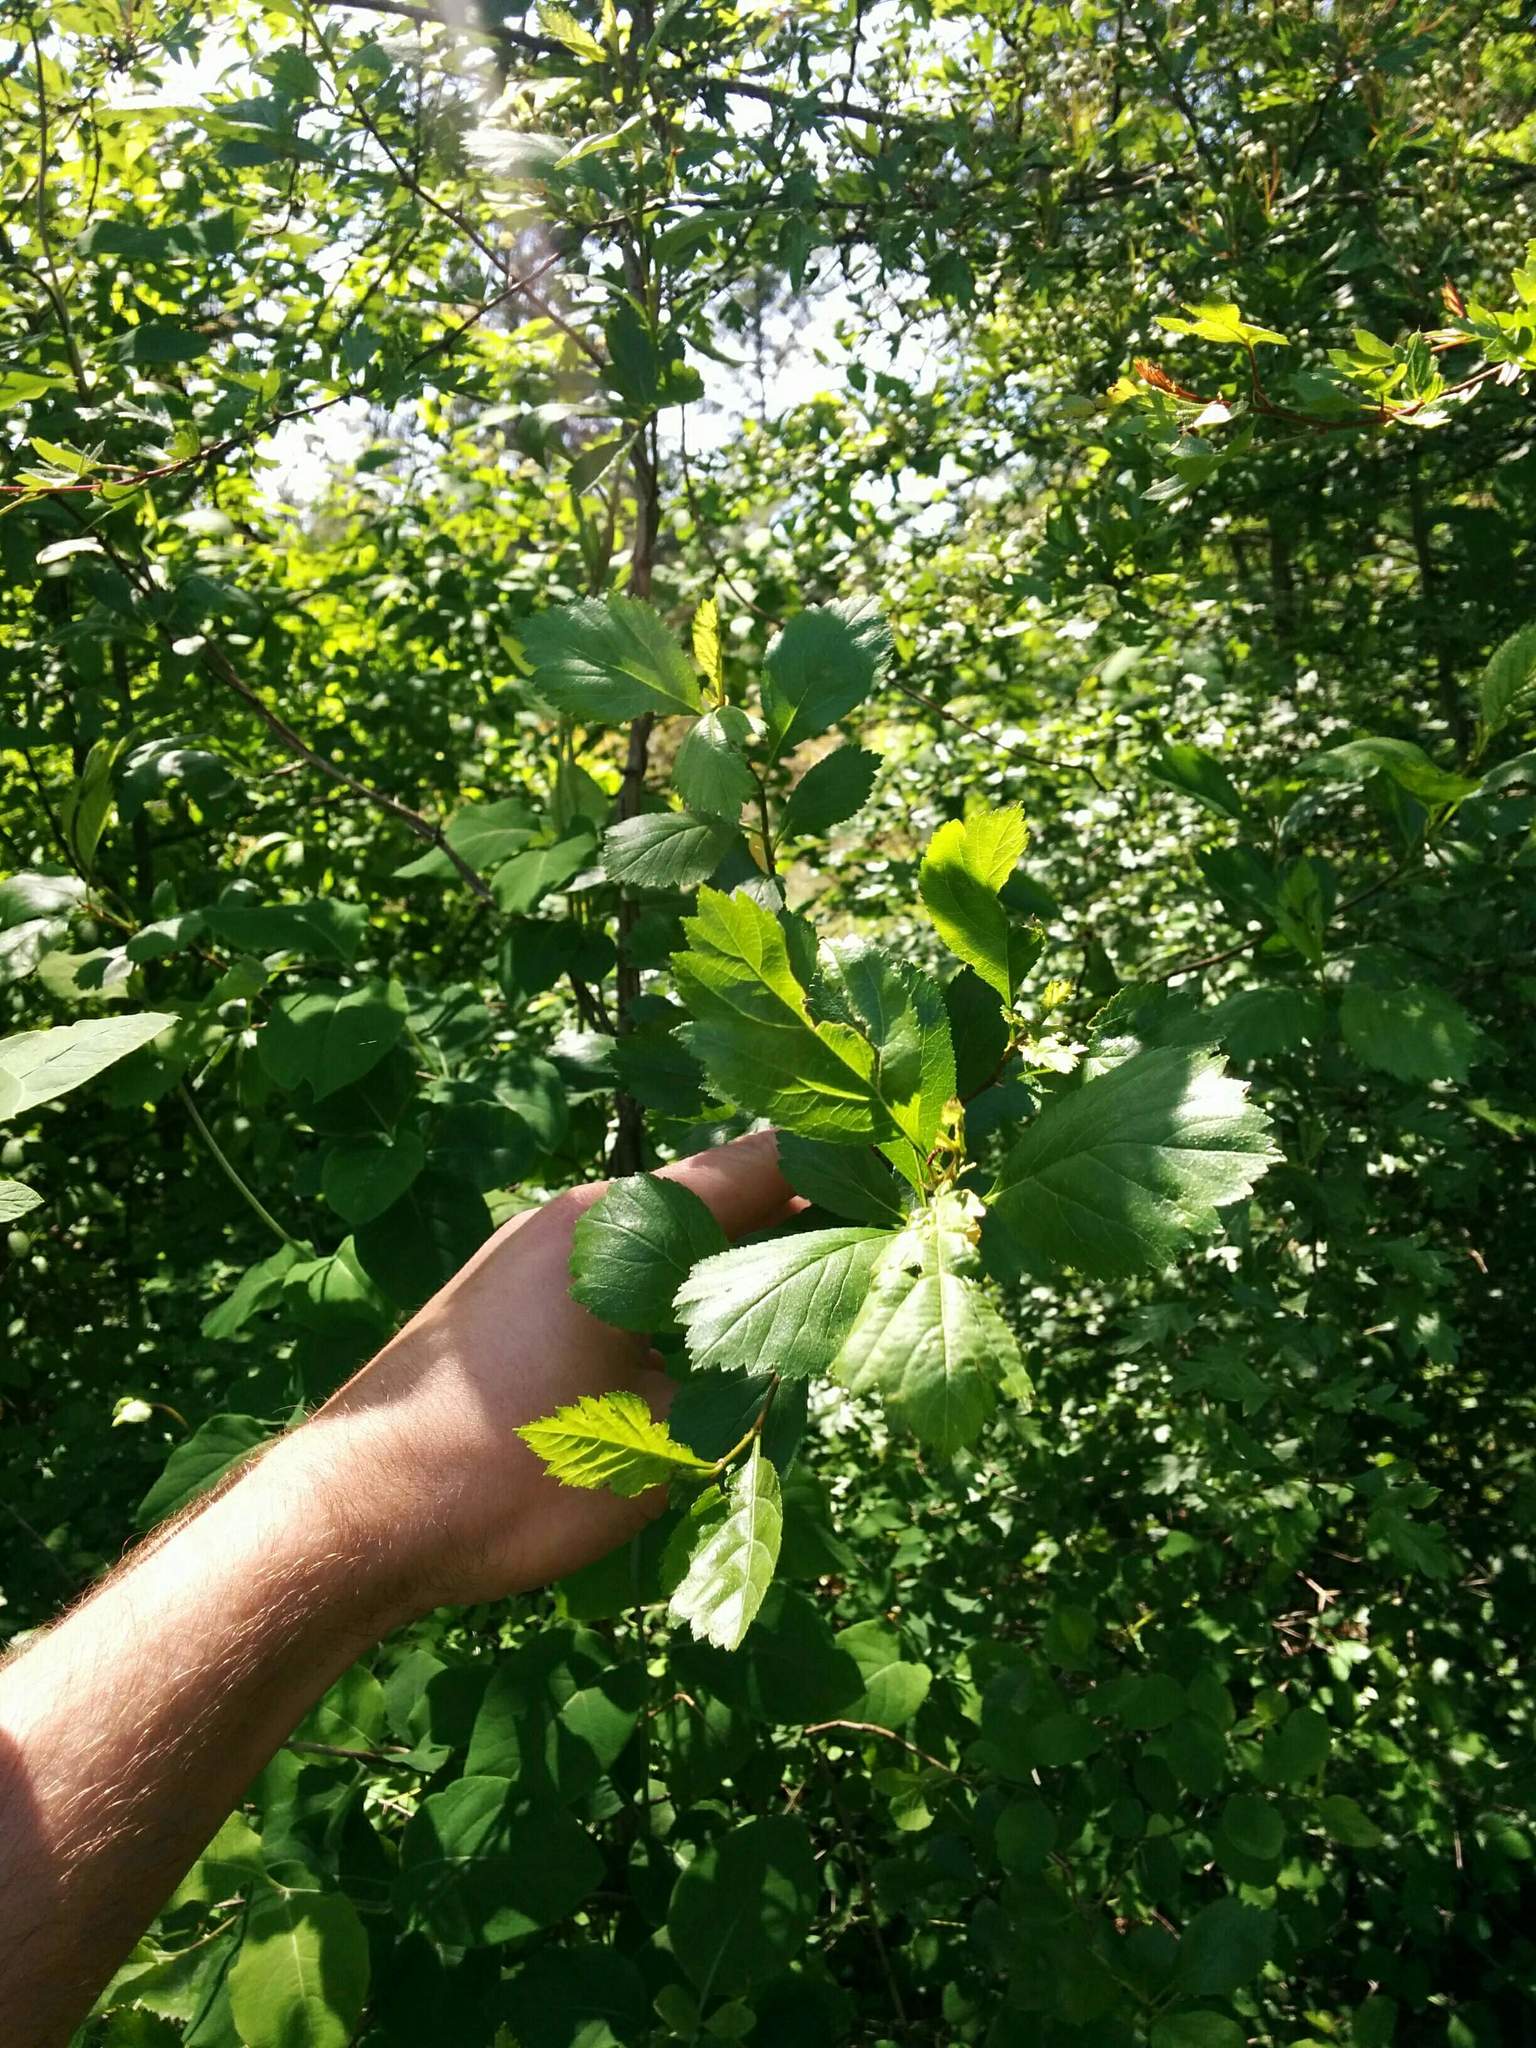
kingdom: Plantae
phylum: Tracheophyta
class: Magnoliopsida
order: Rosales
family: Rosaceae
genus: Crataegus
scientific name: Crataegus douglasii
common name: Black hawthorn
